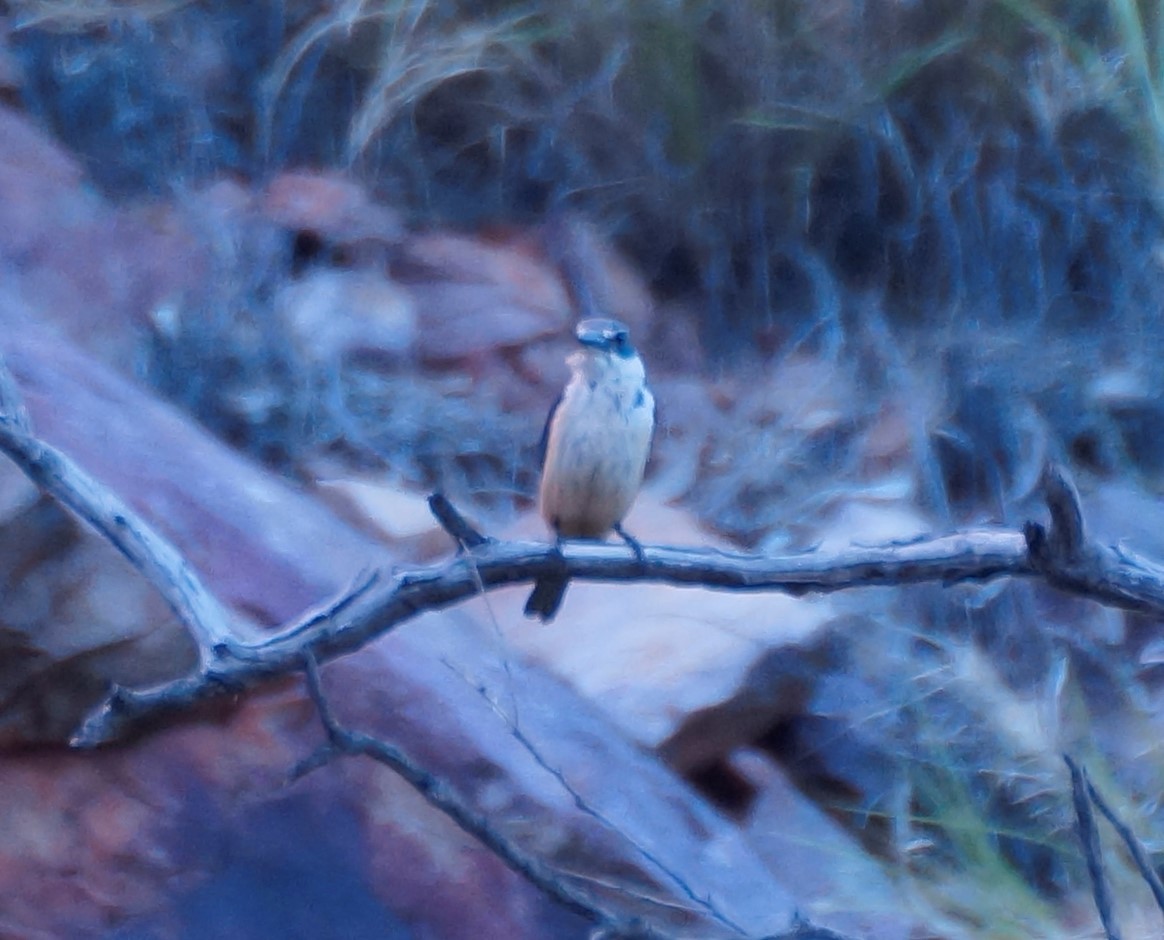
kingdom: Animalia
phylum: Chordata
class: Aves
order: Coraciiformes
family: Alcedinidae
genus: Todiramphus
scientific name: Todiramphus sanctus
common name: Sacred kingfisher
